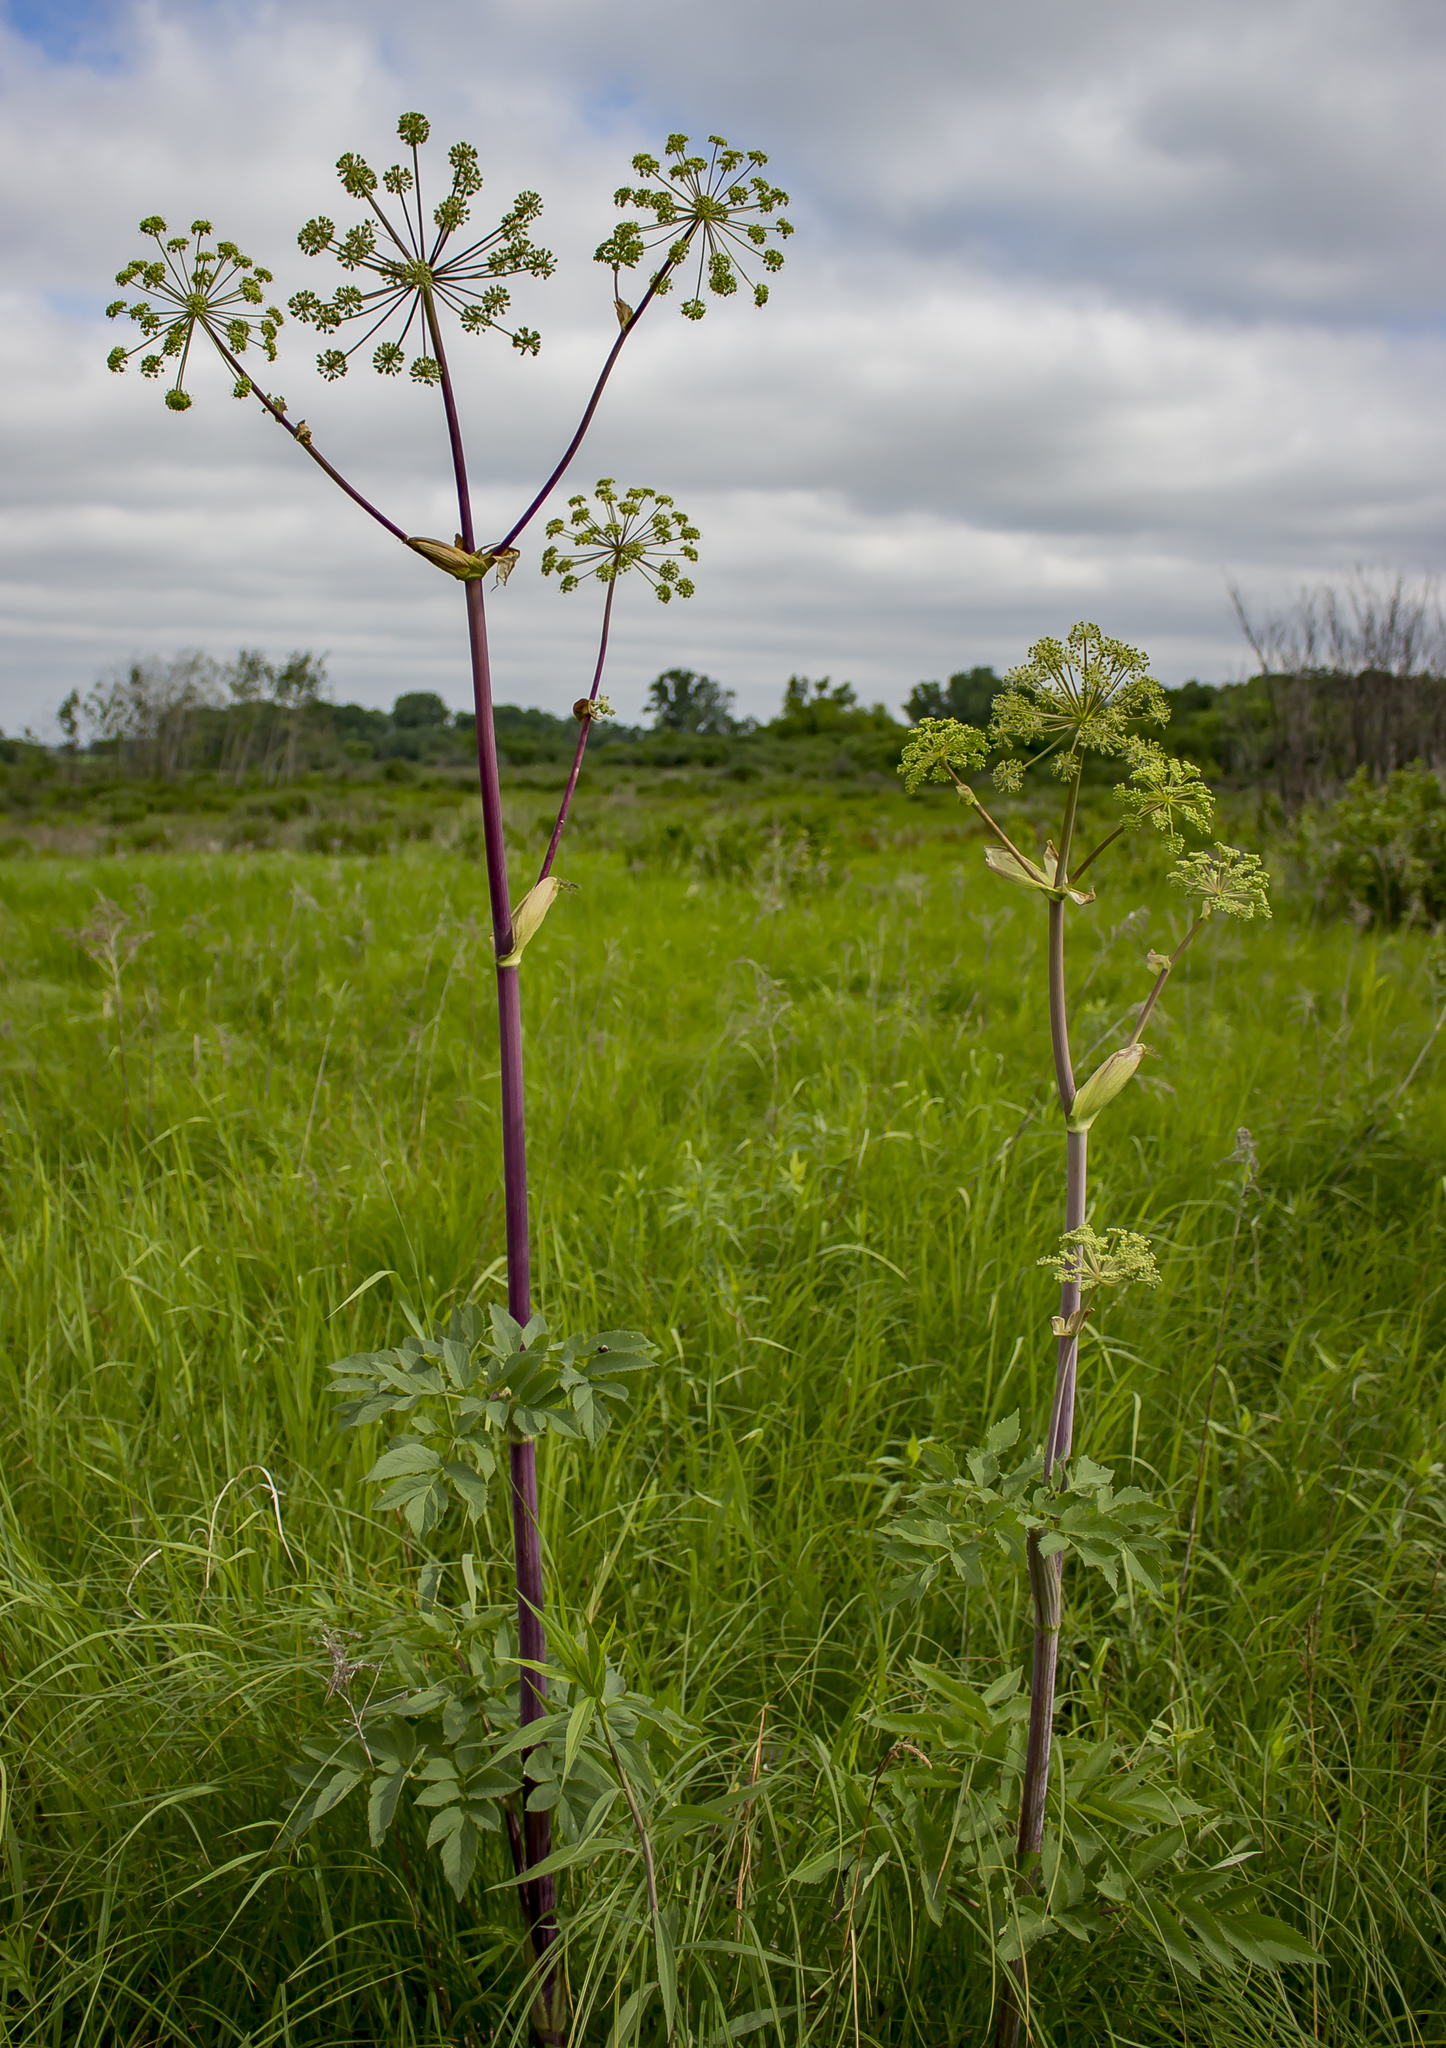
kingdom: Plantae
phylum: Tracheophyta
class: Magnoliopsida
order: Apiales
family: Apiaceae
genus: Angelica
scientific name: Angelica atropurpurea
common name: Great angelica
